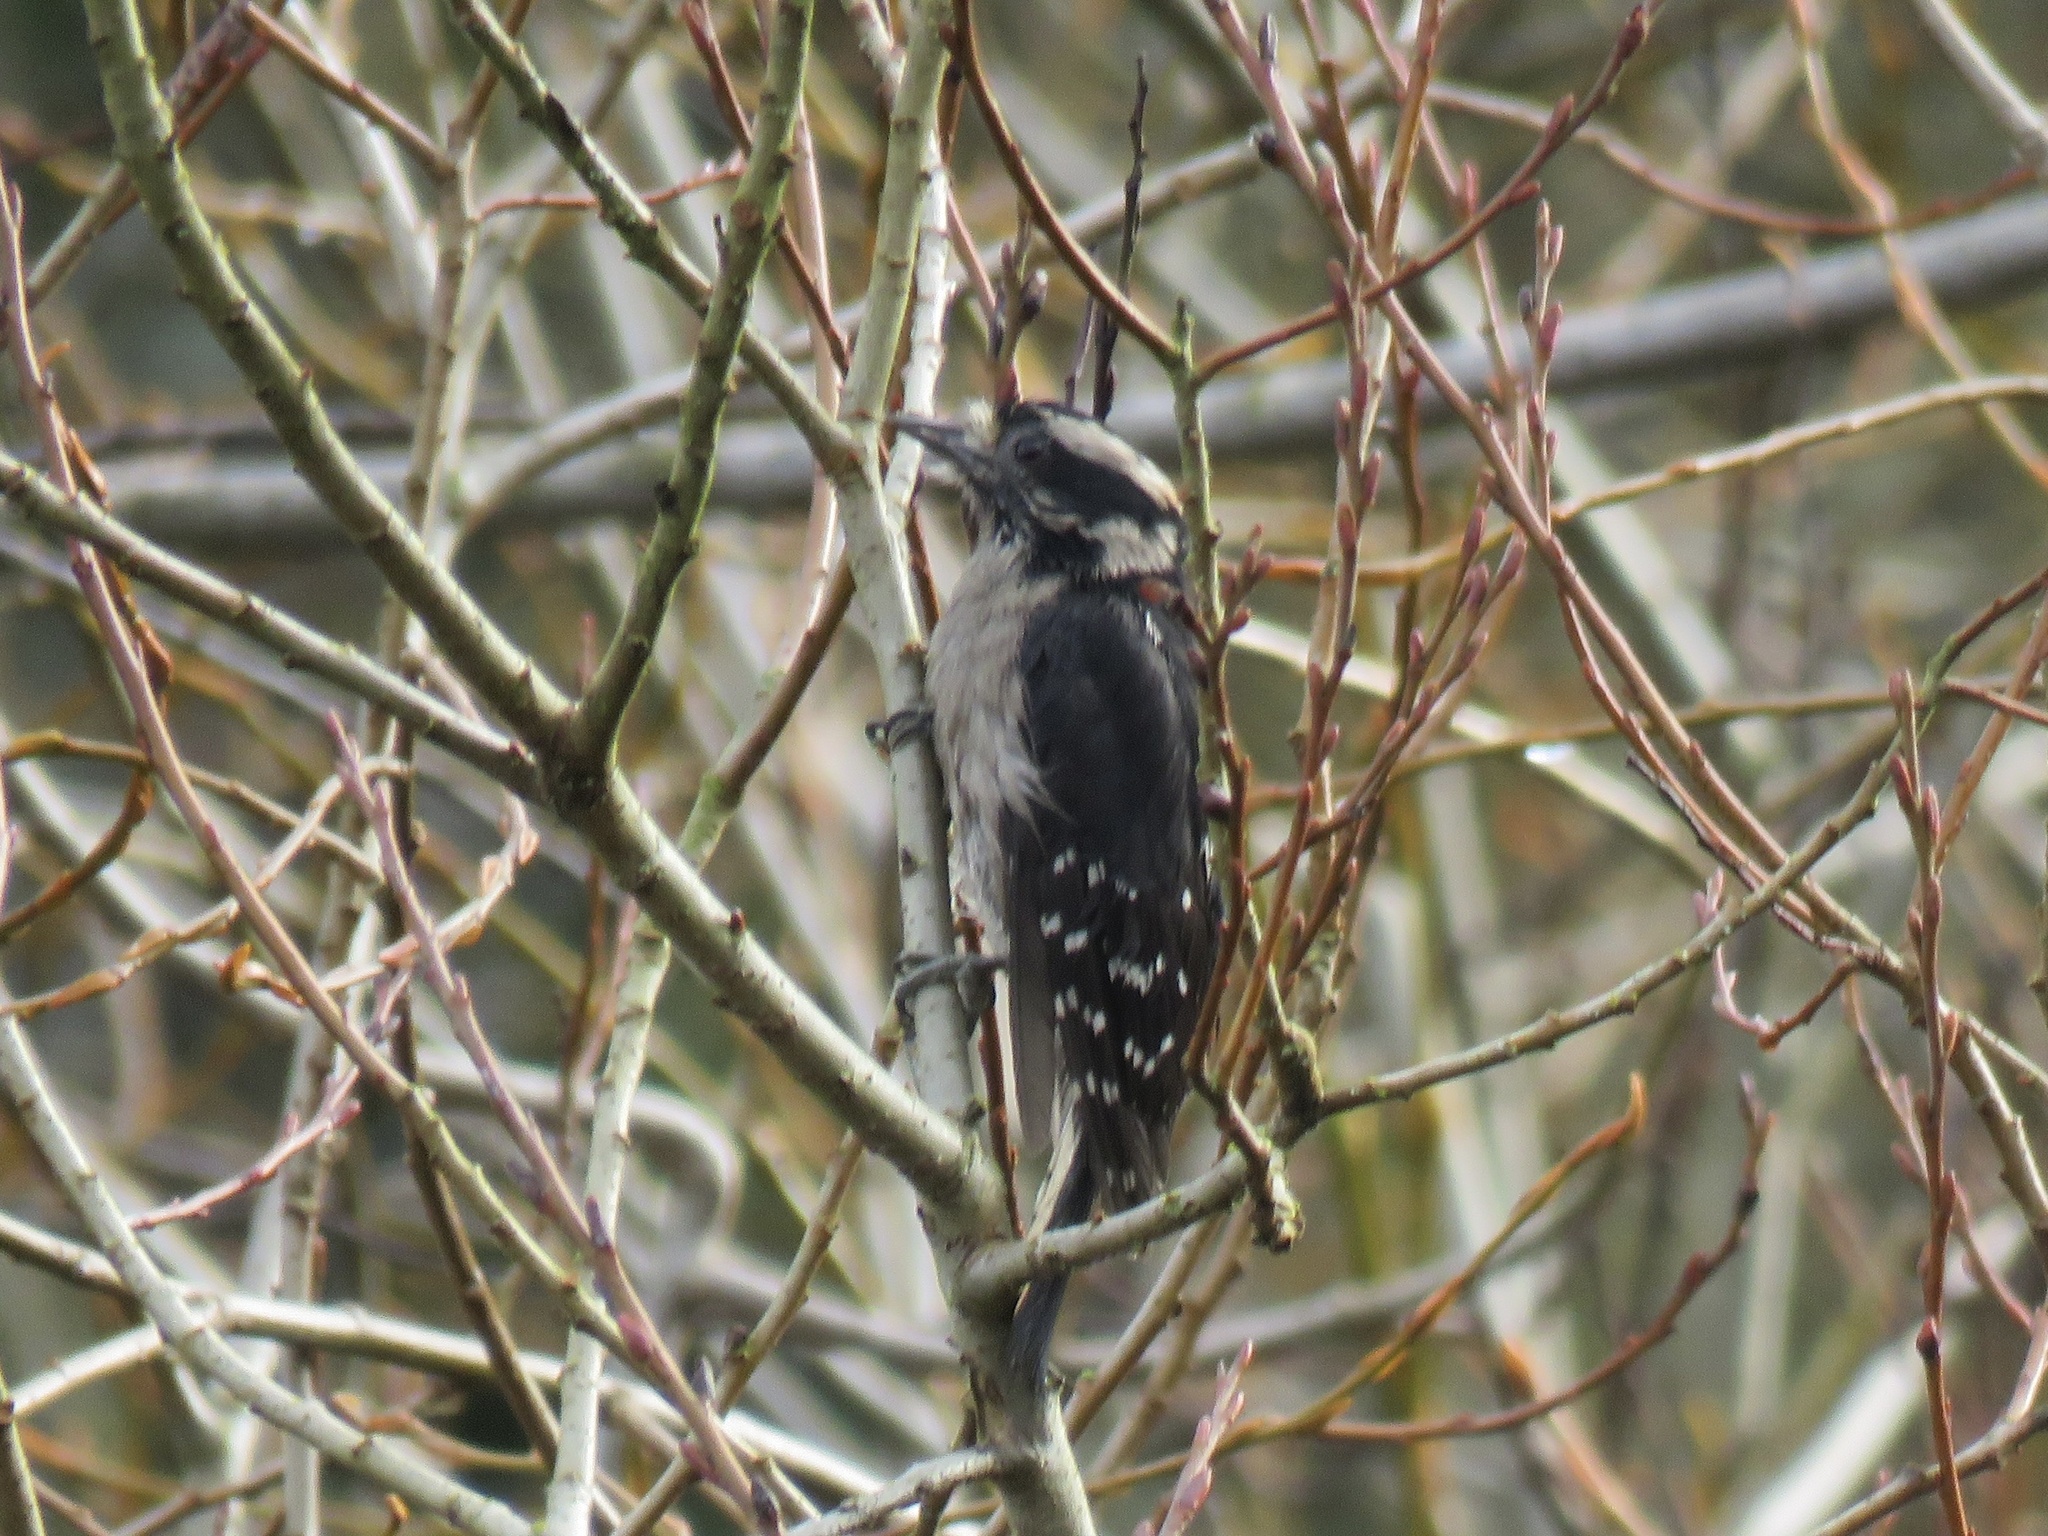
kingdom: Animalia
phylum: Chordata
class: Aves
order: Piciformes
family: Picidae
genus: Dryobates
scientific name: Dryobates pubescens
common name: Downy woodpecker
